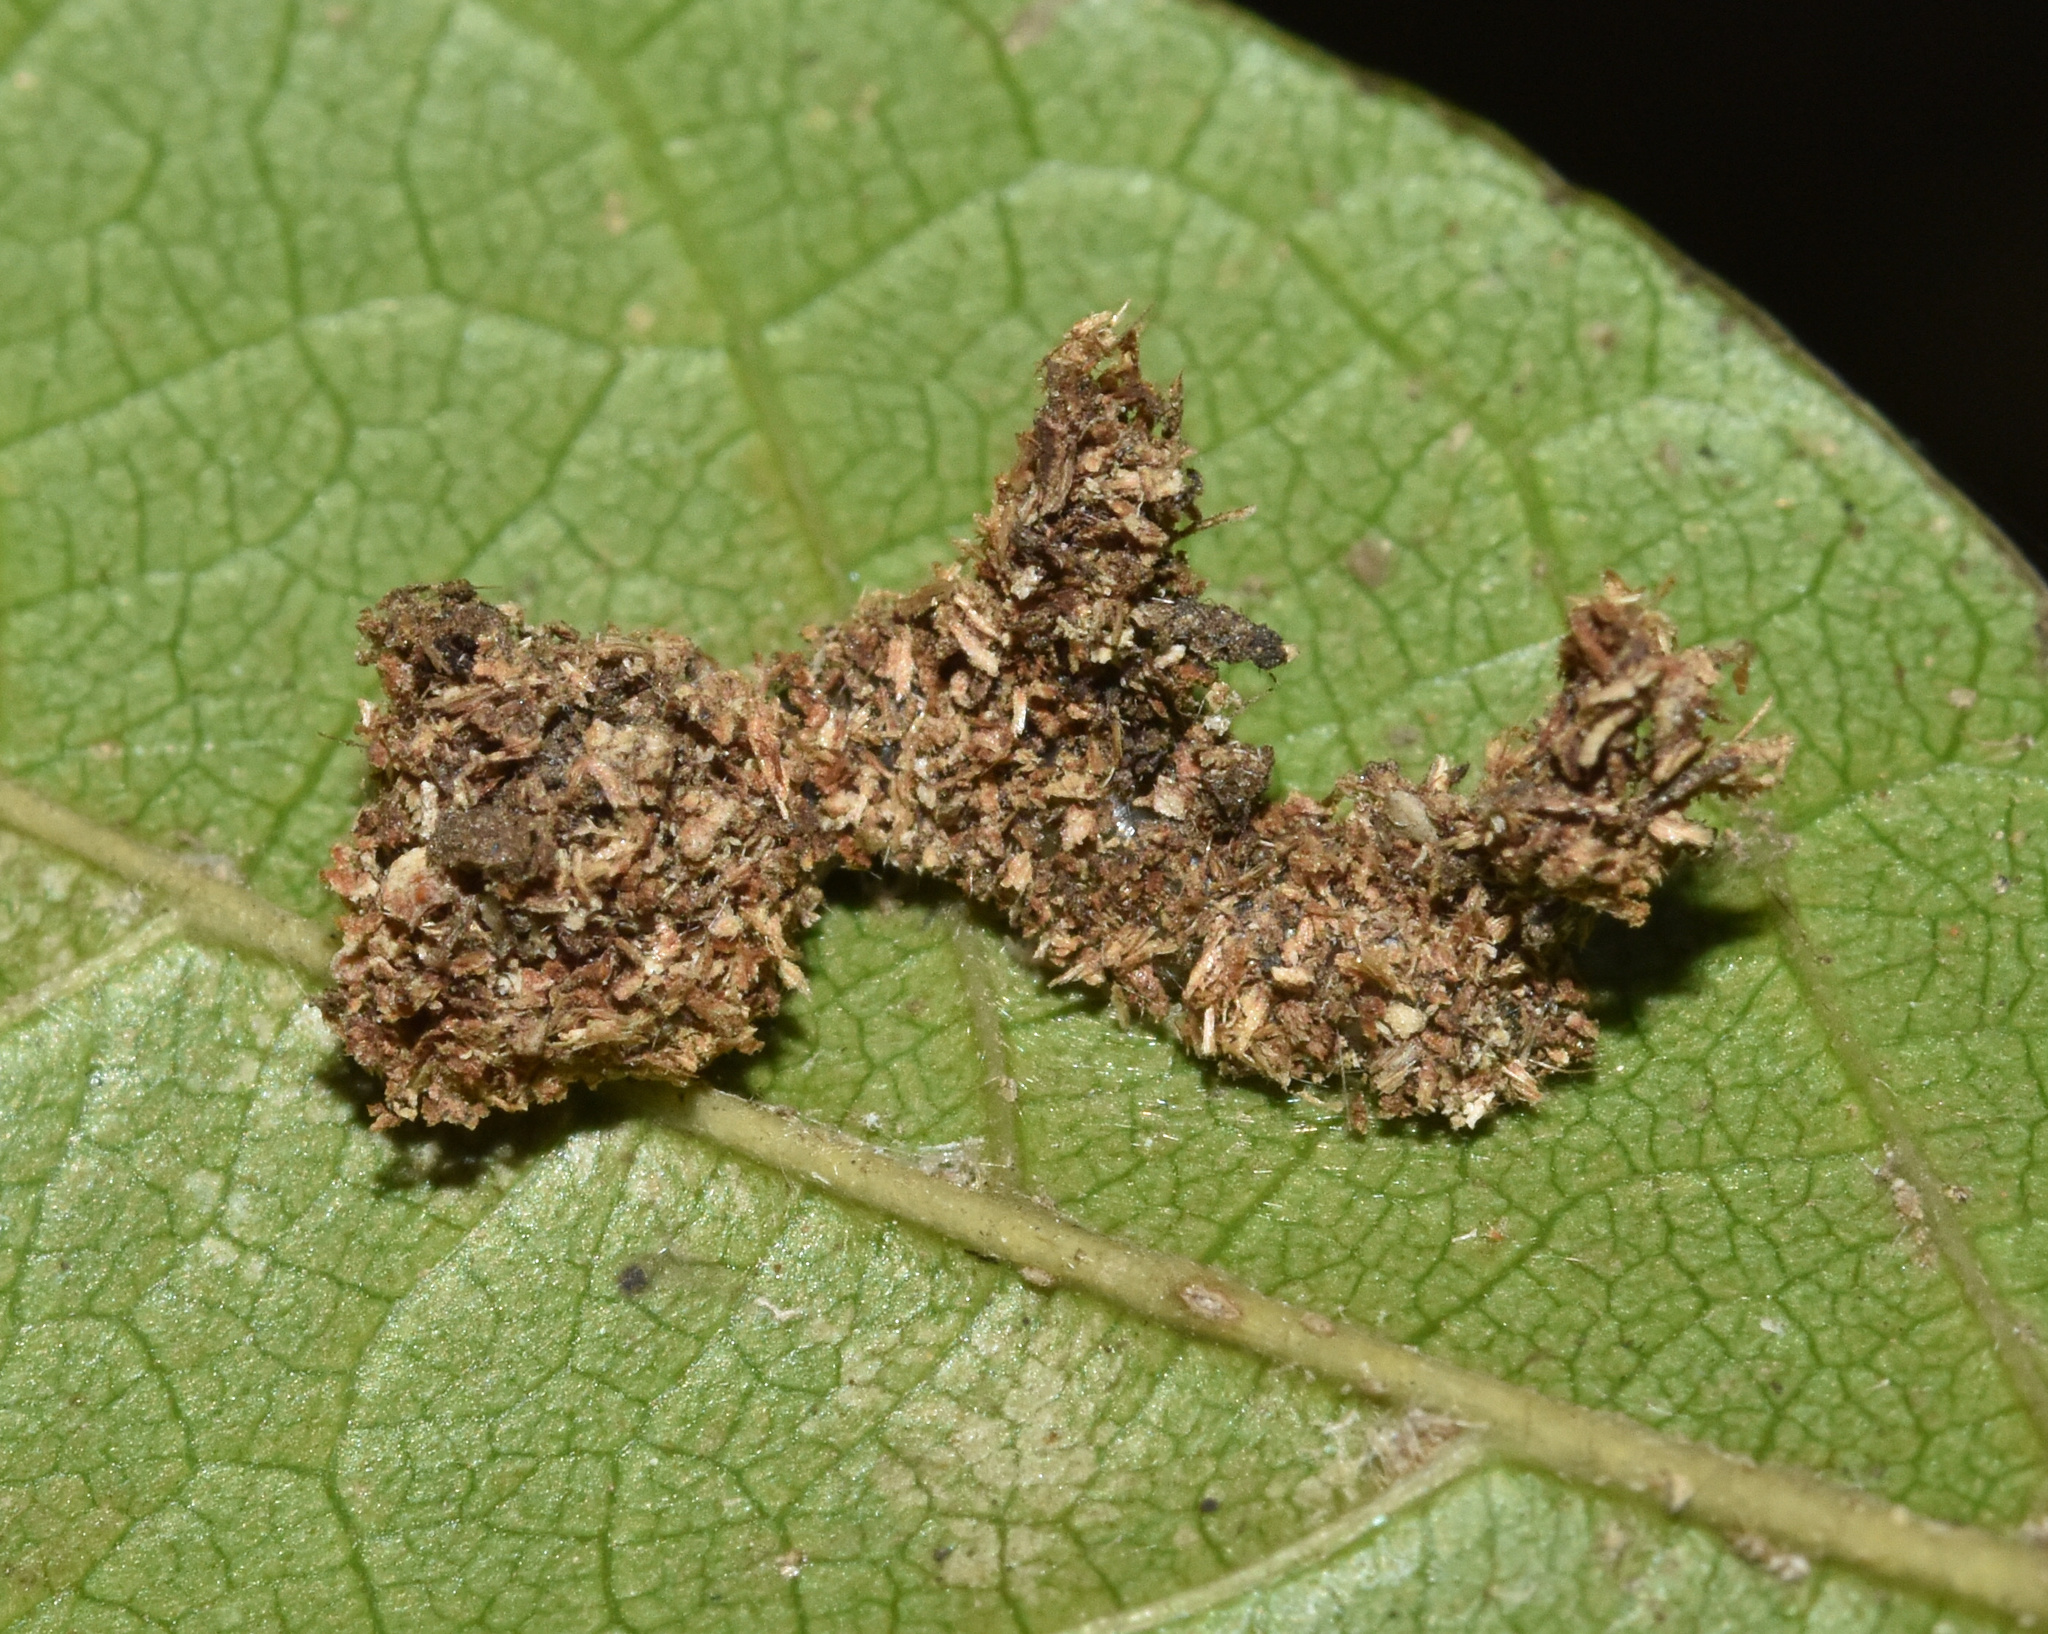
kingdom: Animalia
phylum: Arthropoda
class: Insecta
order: Lepidoptera
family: Euteliidae
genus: Penicillaria
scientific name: Penicillaria ethiopica
